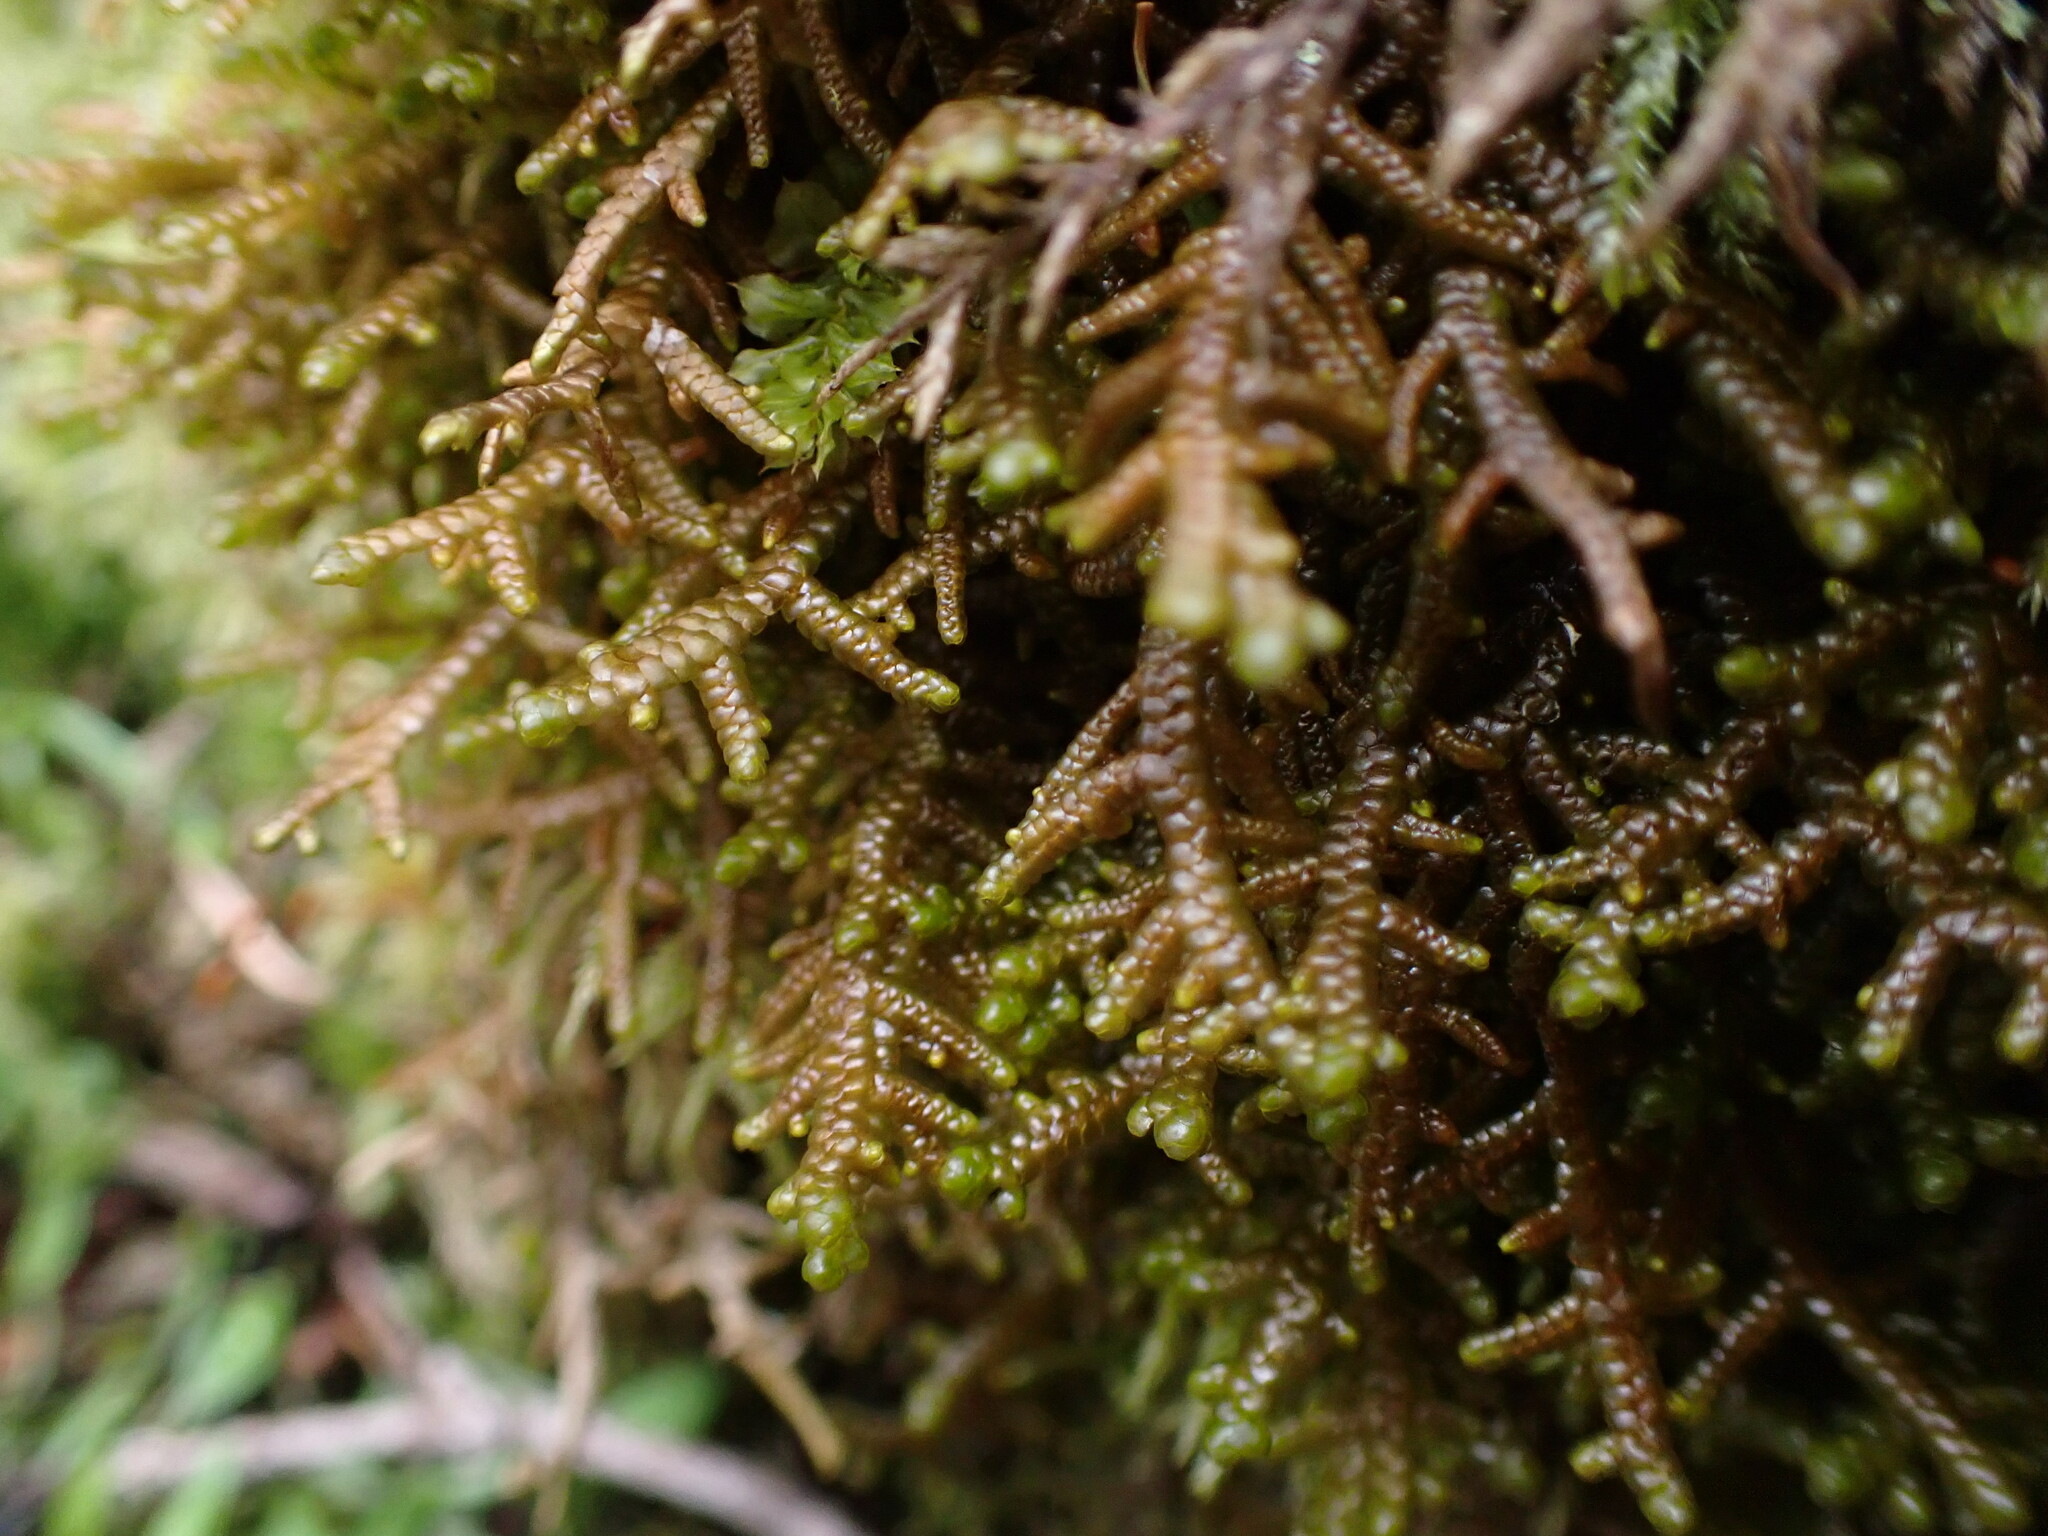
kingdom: Plantae
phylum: Marchantiophyta
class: Jungermanniopsida
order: Porellales
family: Porellaceae
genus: Porella
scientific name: Porella roellii
